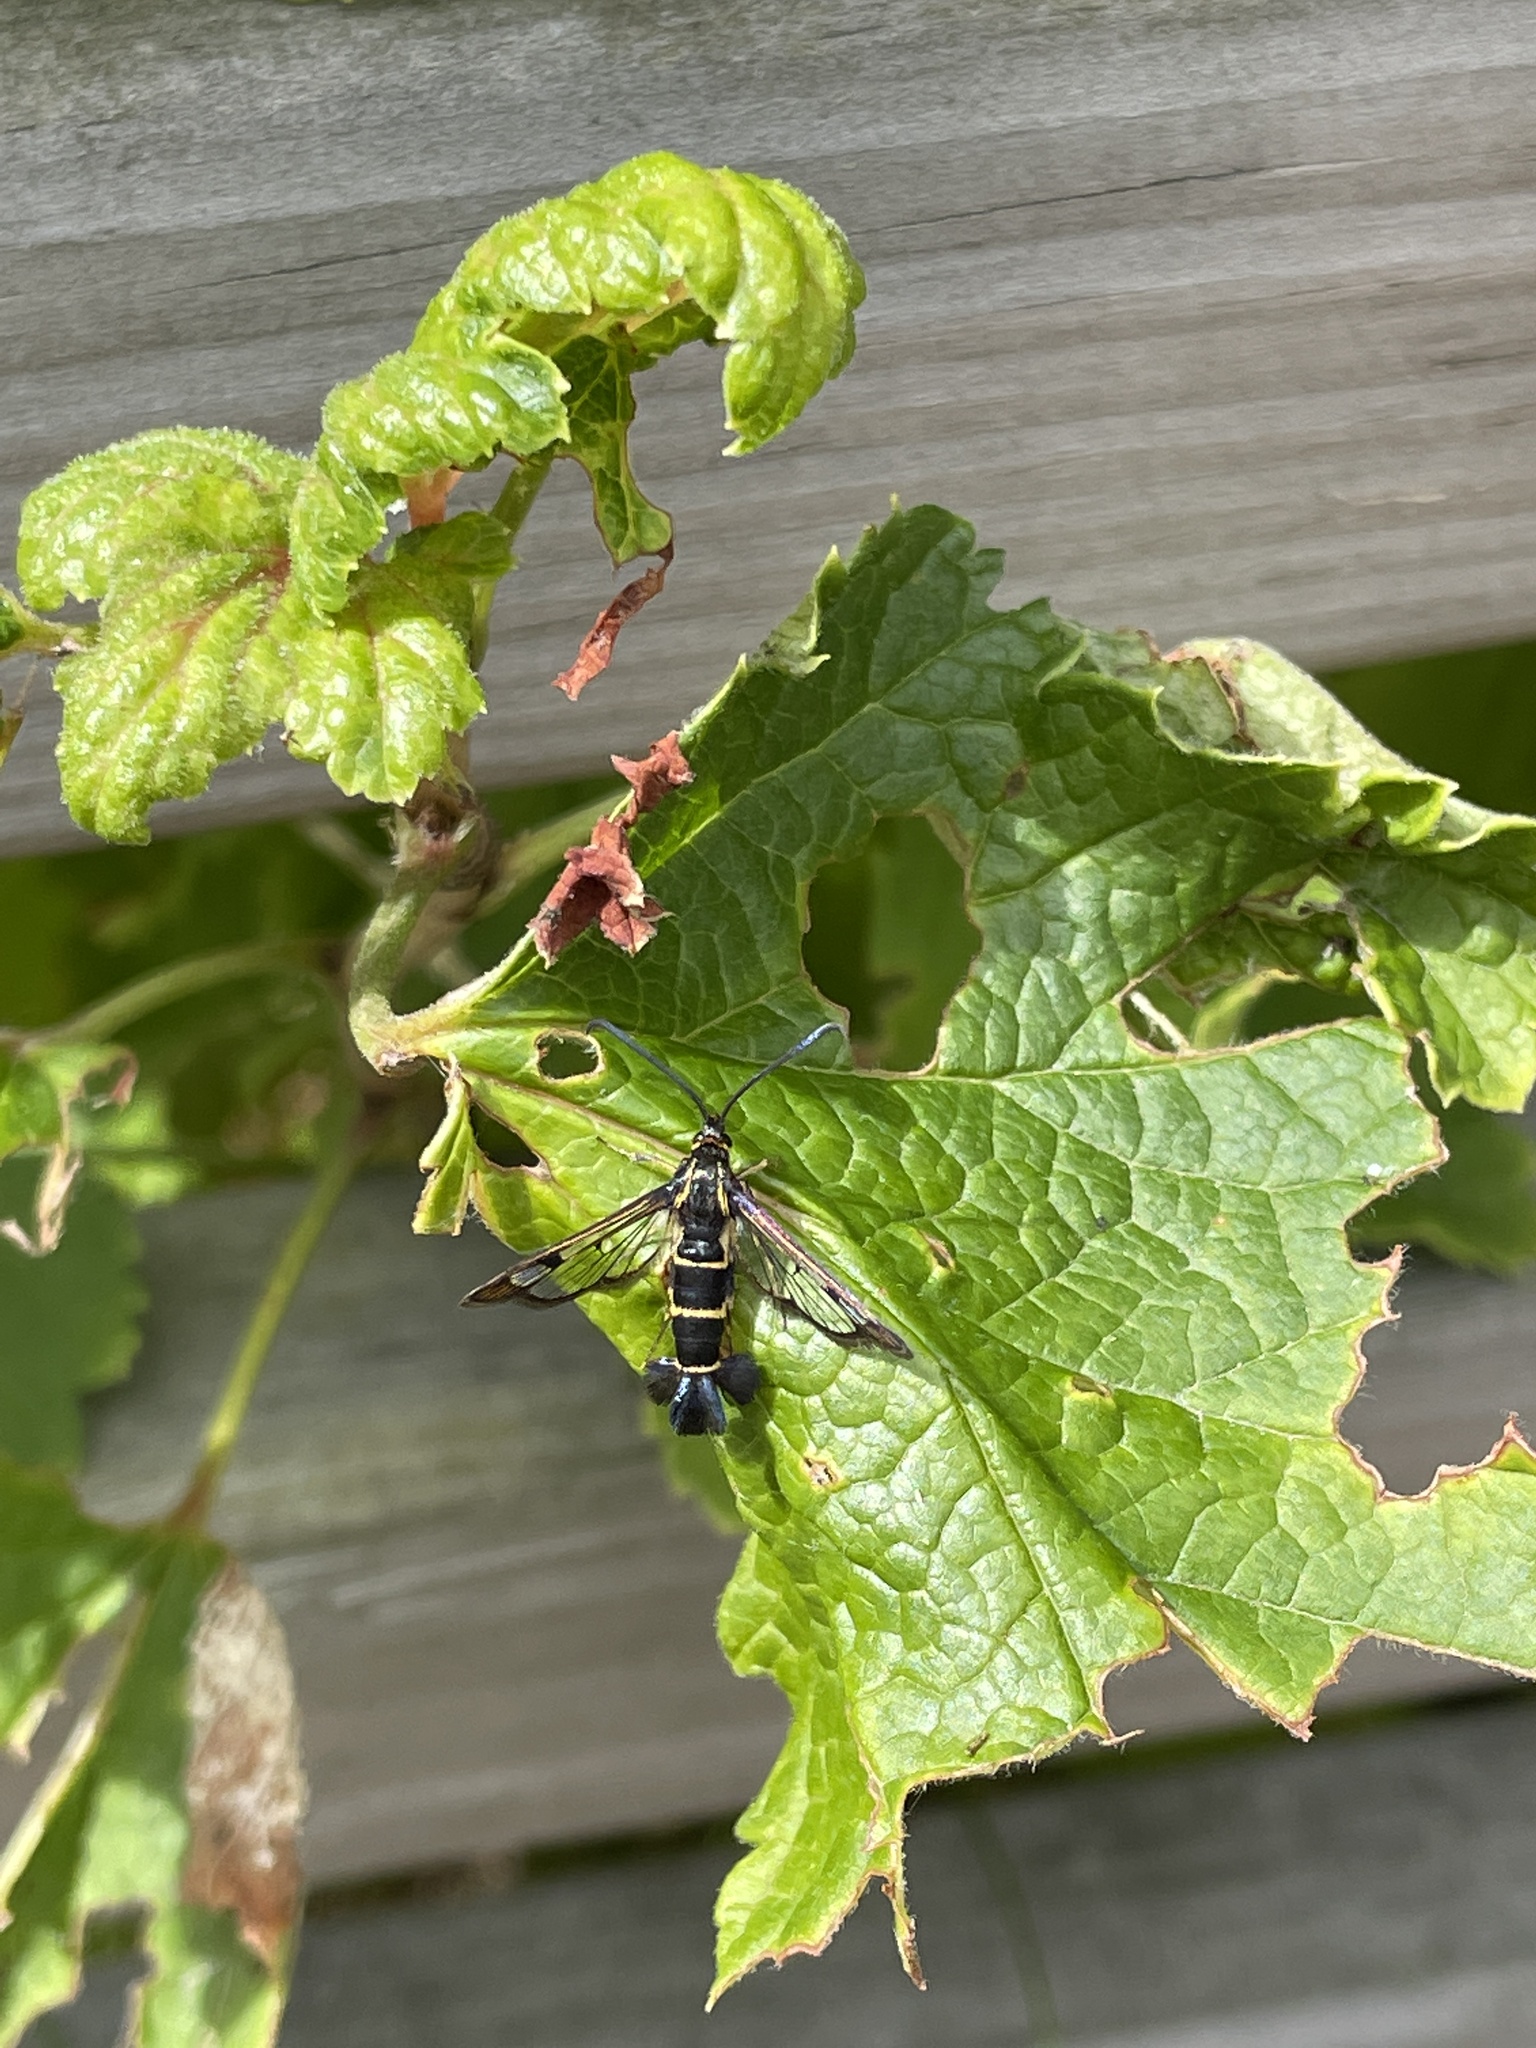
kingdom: Animalia
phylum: Arthropoda
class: Insecta
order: Lepidoptera
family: Sesiidae
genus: Synanthedon
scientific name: Synanthedon tipuliformis
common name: Currant clearwing
